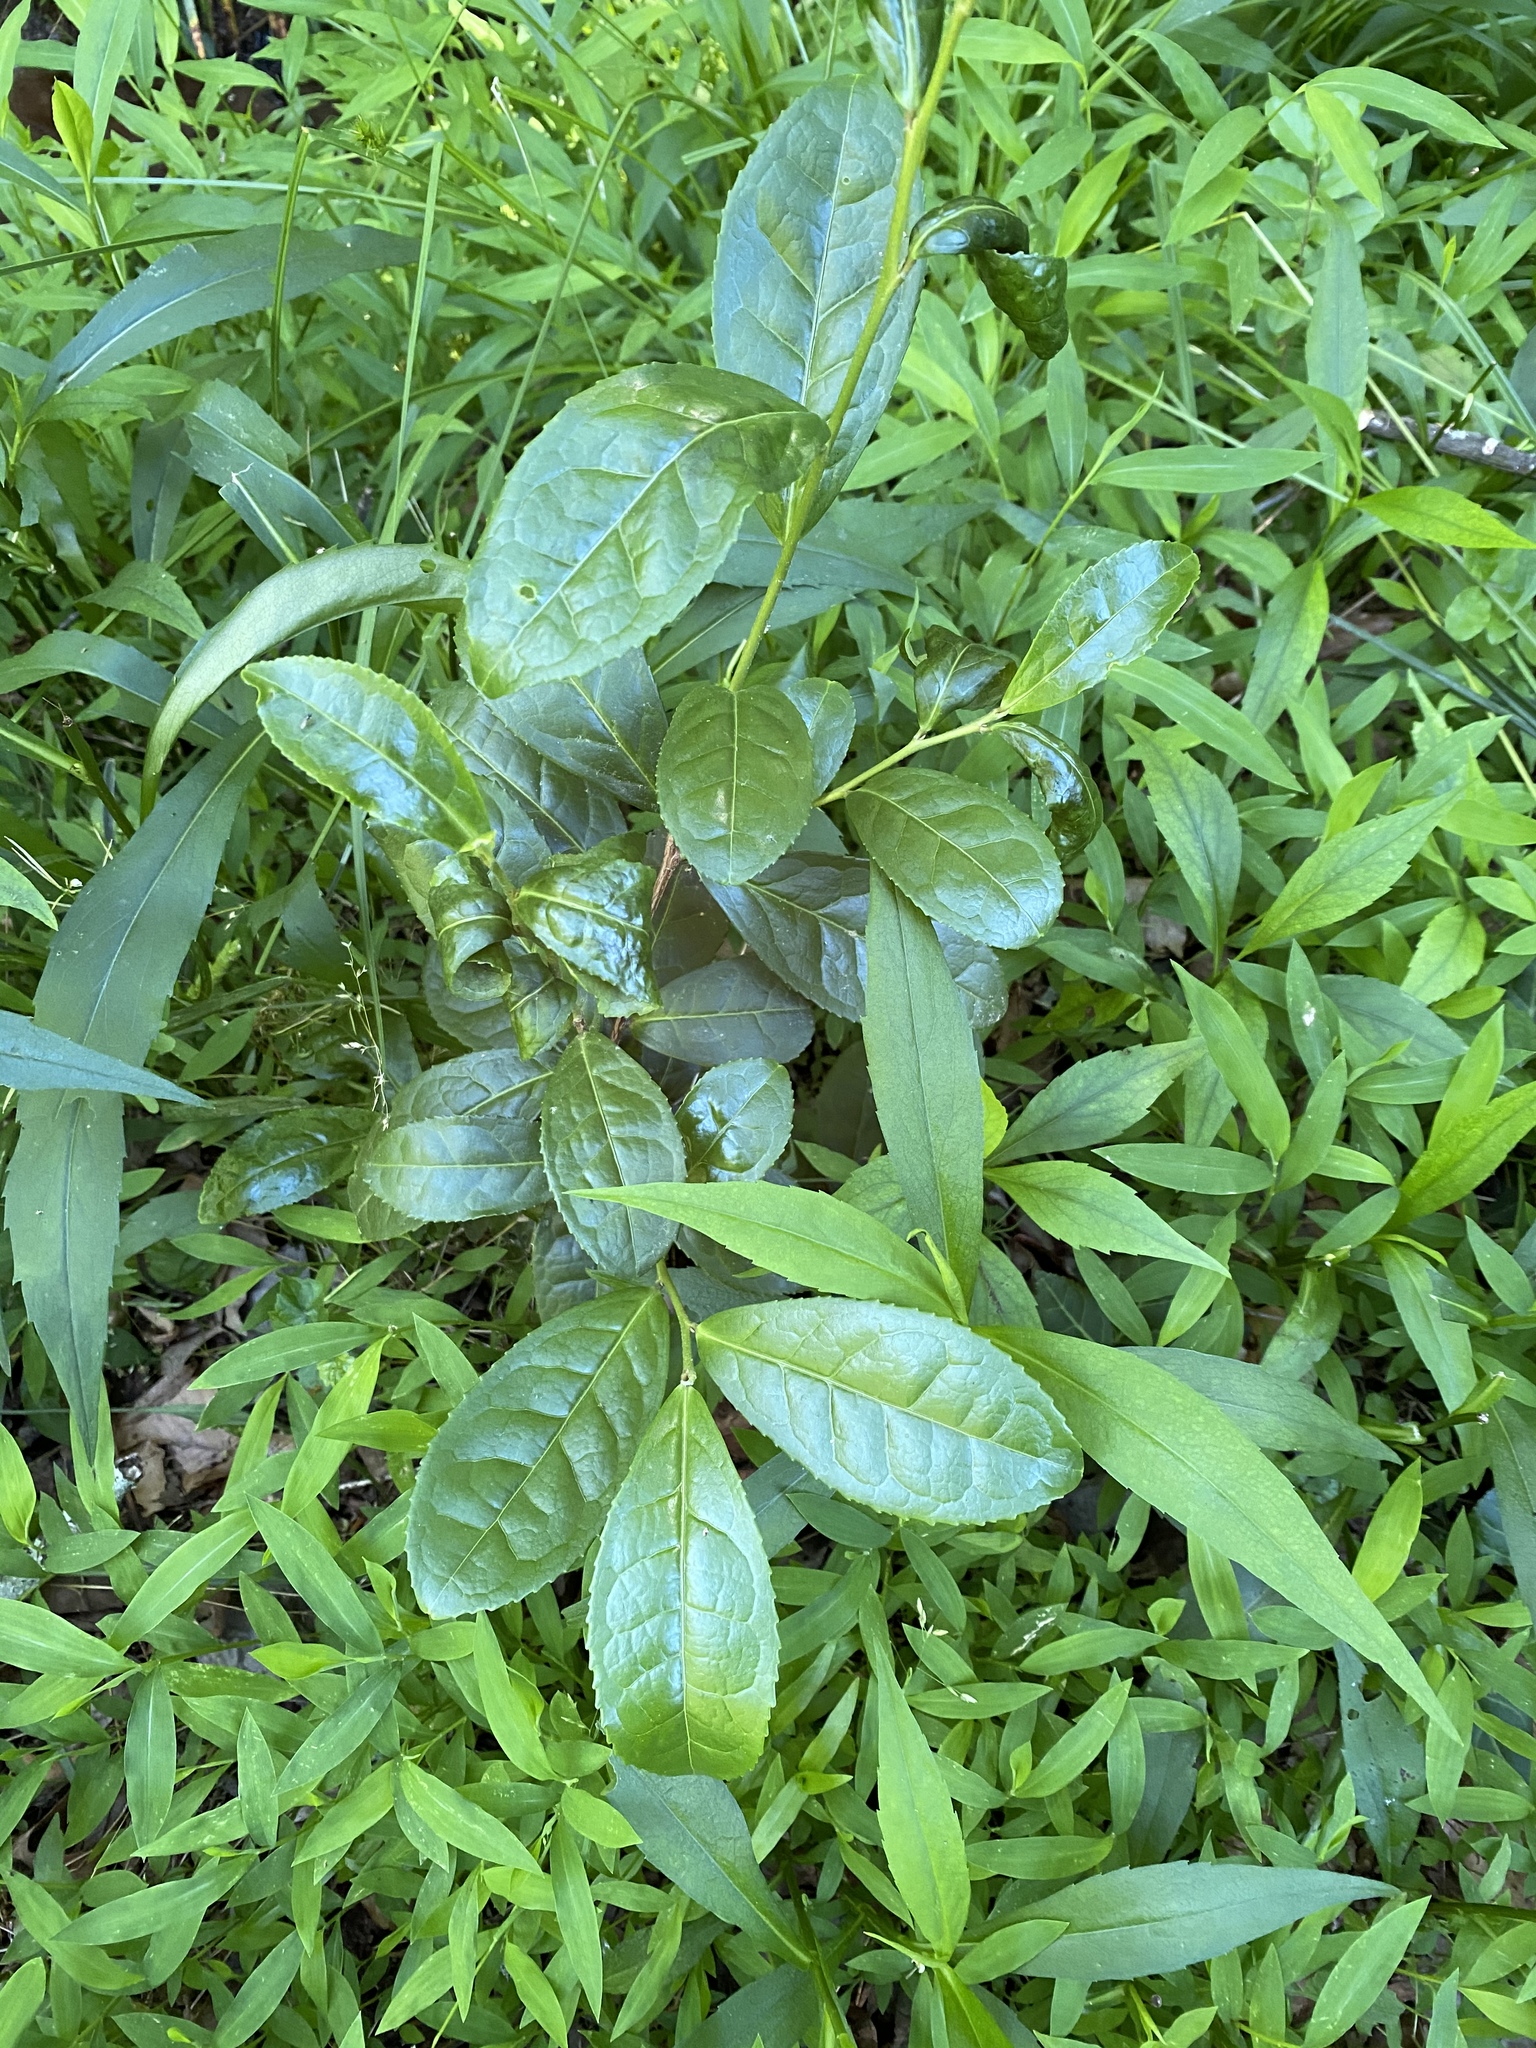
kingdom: Plantae
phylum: Tracheophyta
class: Magnoliopsida
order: Lamiales
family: Oleaceae
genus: Osmanthus
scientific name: Osmanthus fragrans
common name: Sweet osmanthus
